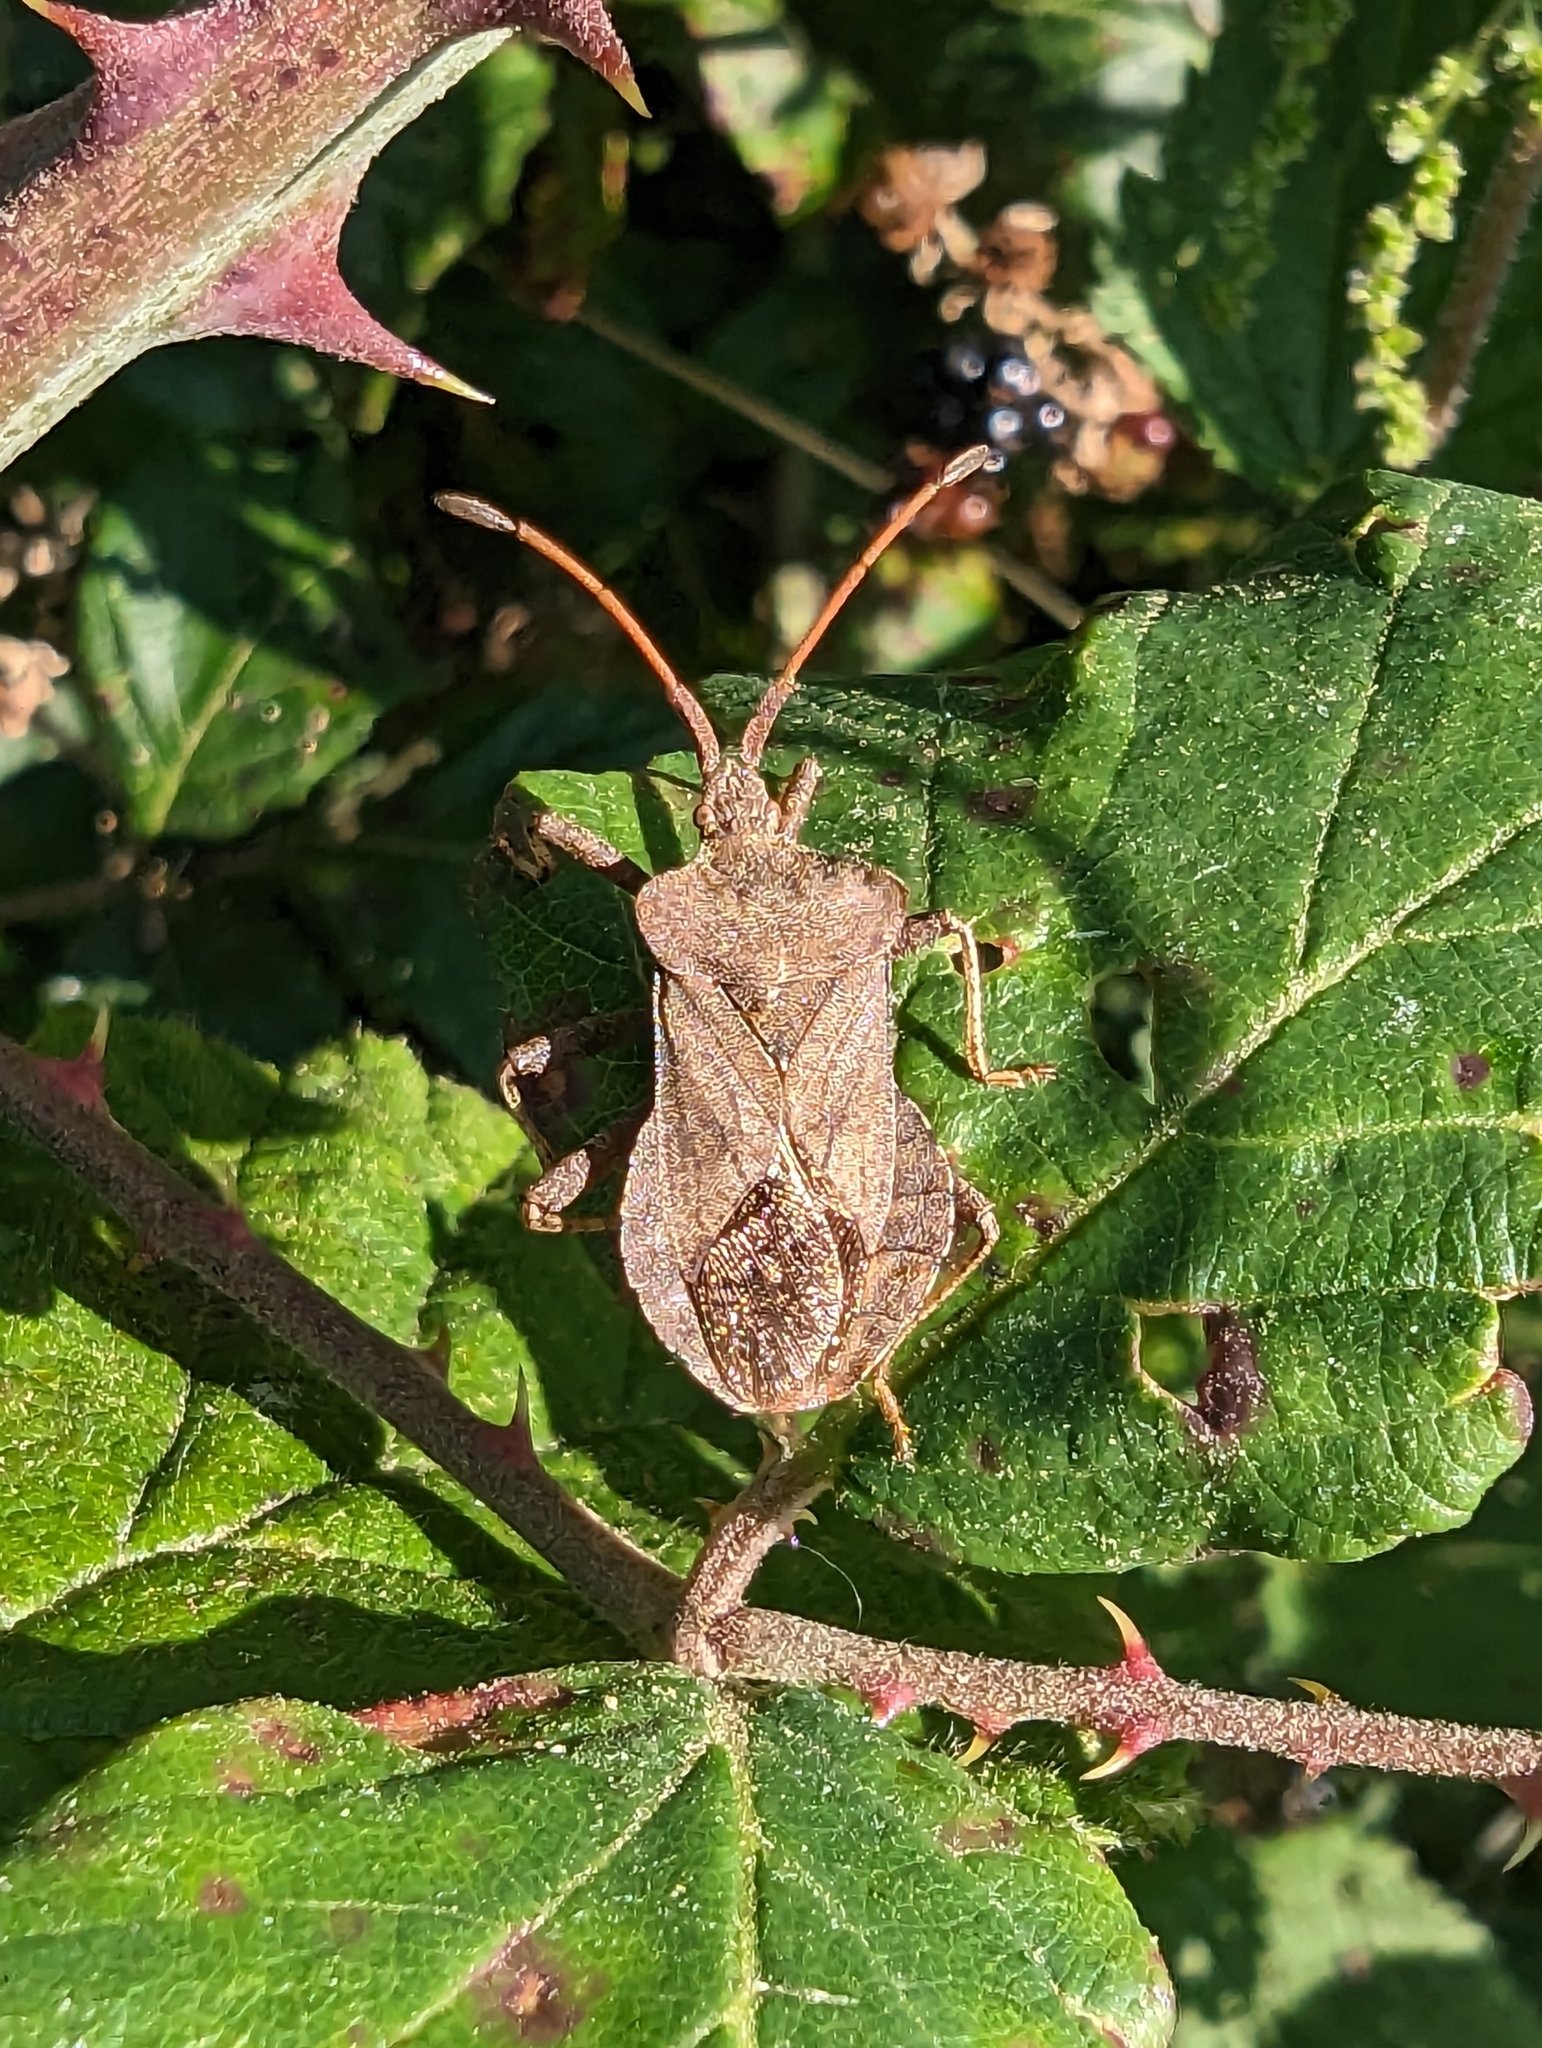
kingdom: Animalia
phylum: Arthropoda
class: Insecta
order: Hemiptera
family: Coreidae
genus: Coreus
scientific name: Coreus marginatus
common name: Dock bug
